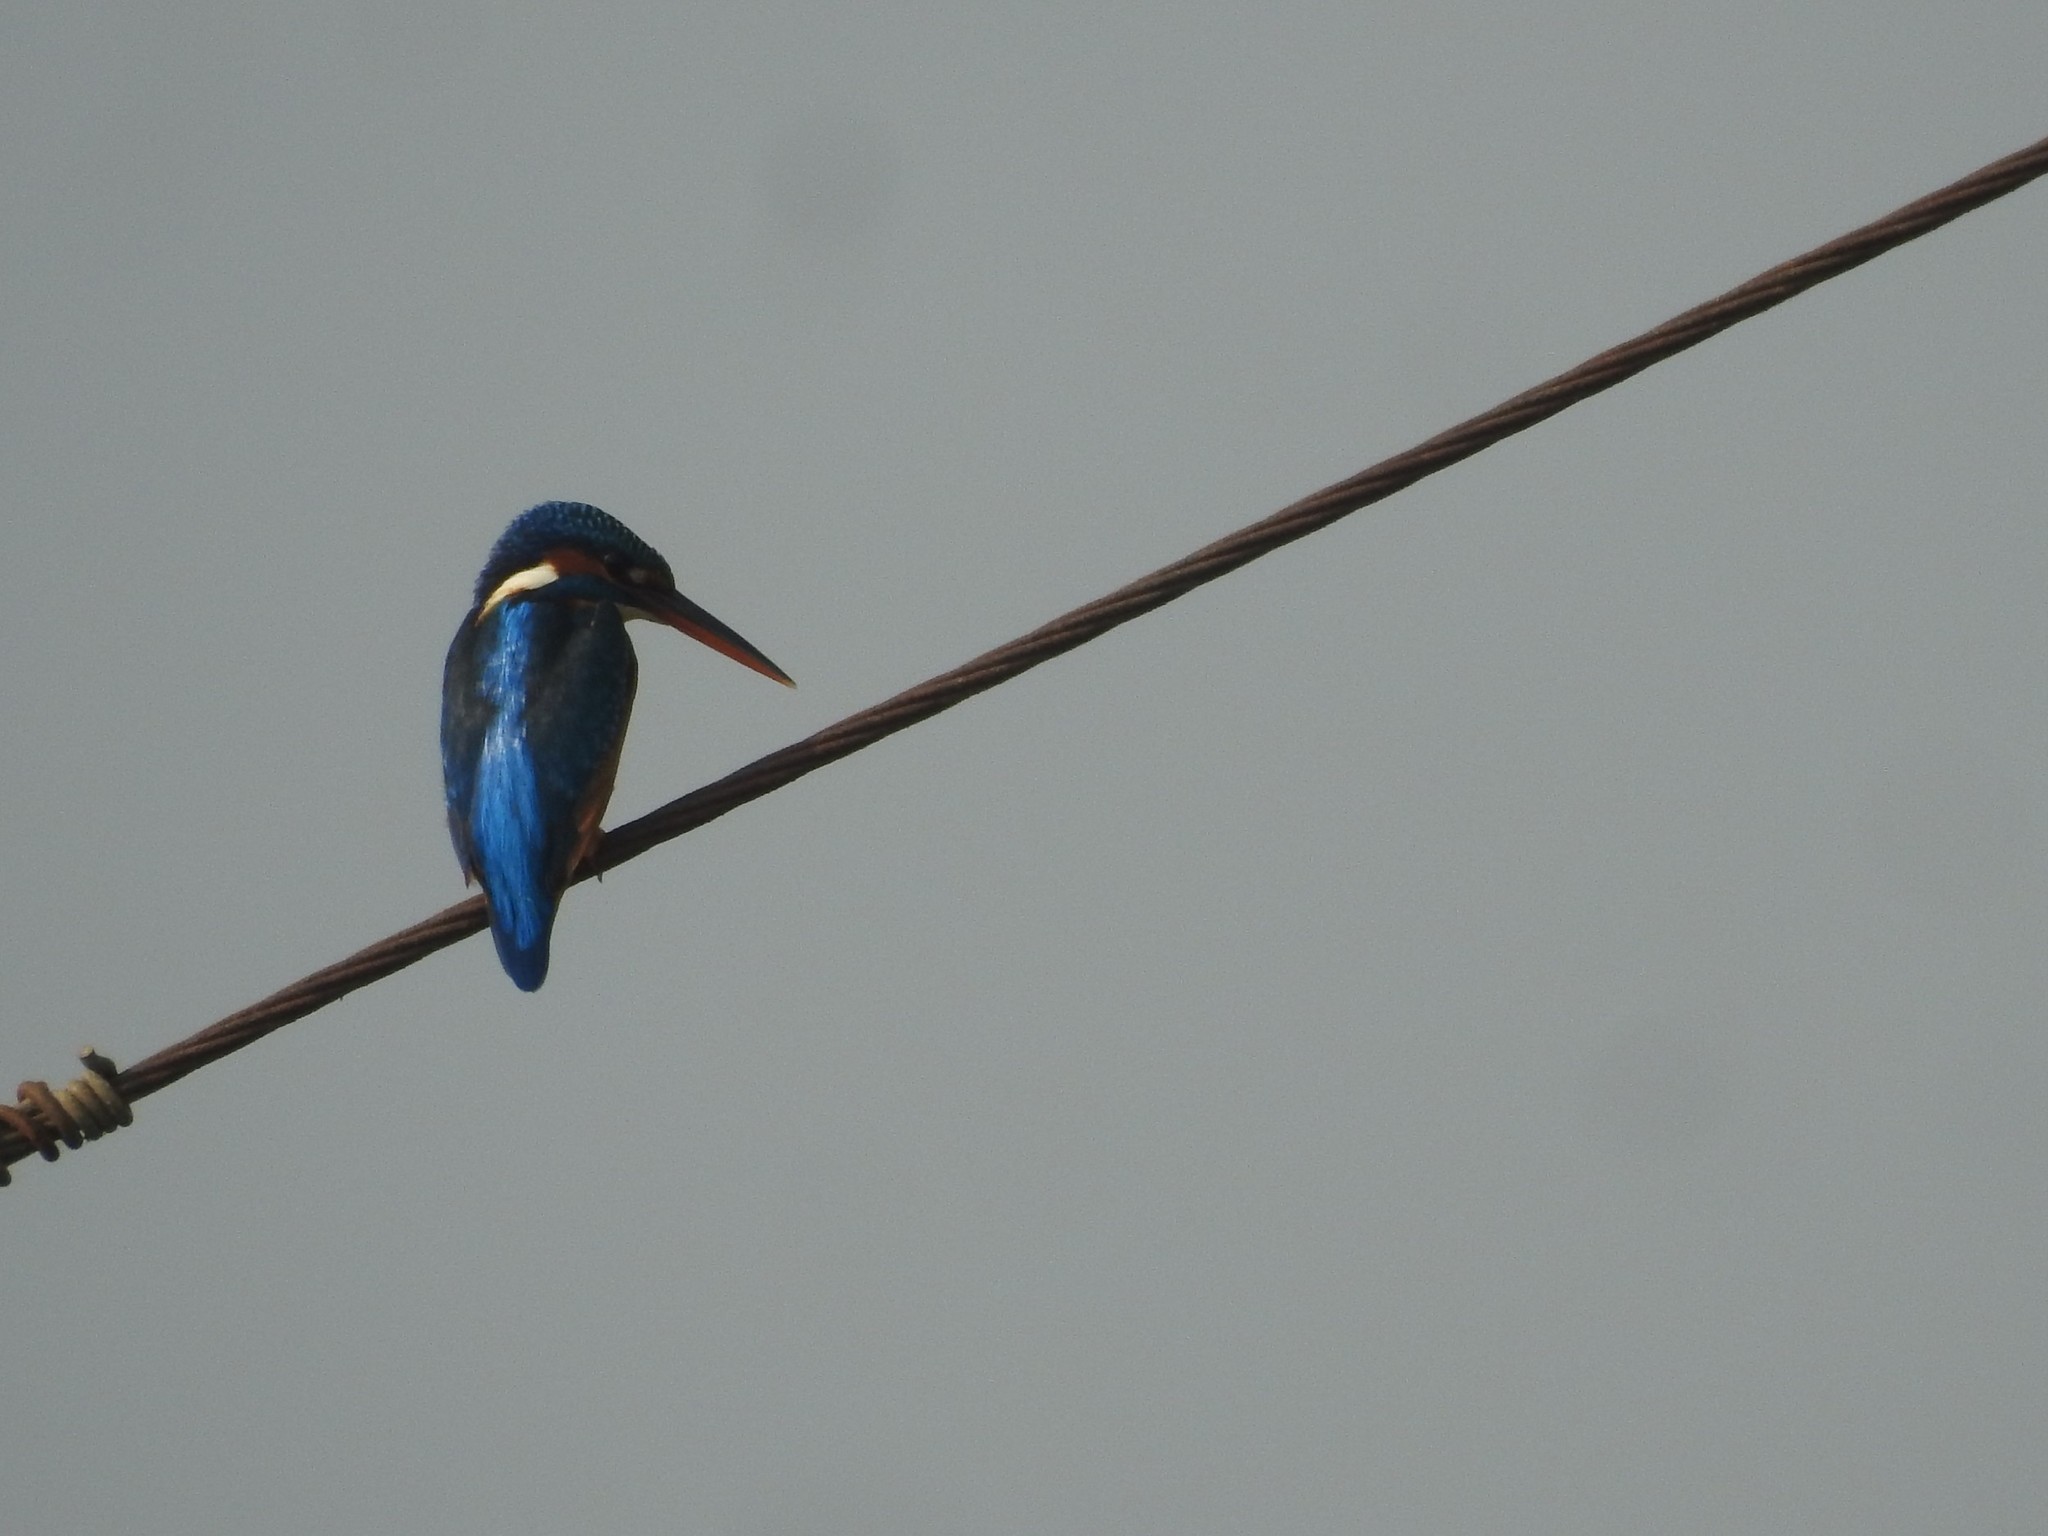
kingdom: Animalia
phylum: Chordata
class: Aves
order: Coraciiformes
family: Alcedinidae
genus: Alcedo
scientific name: Alcedo atthis
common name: Common kingfisher
